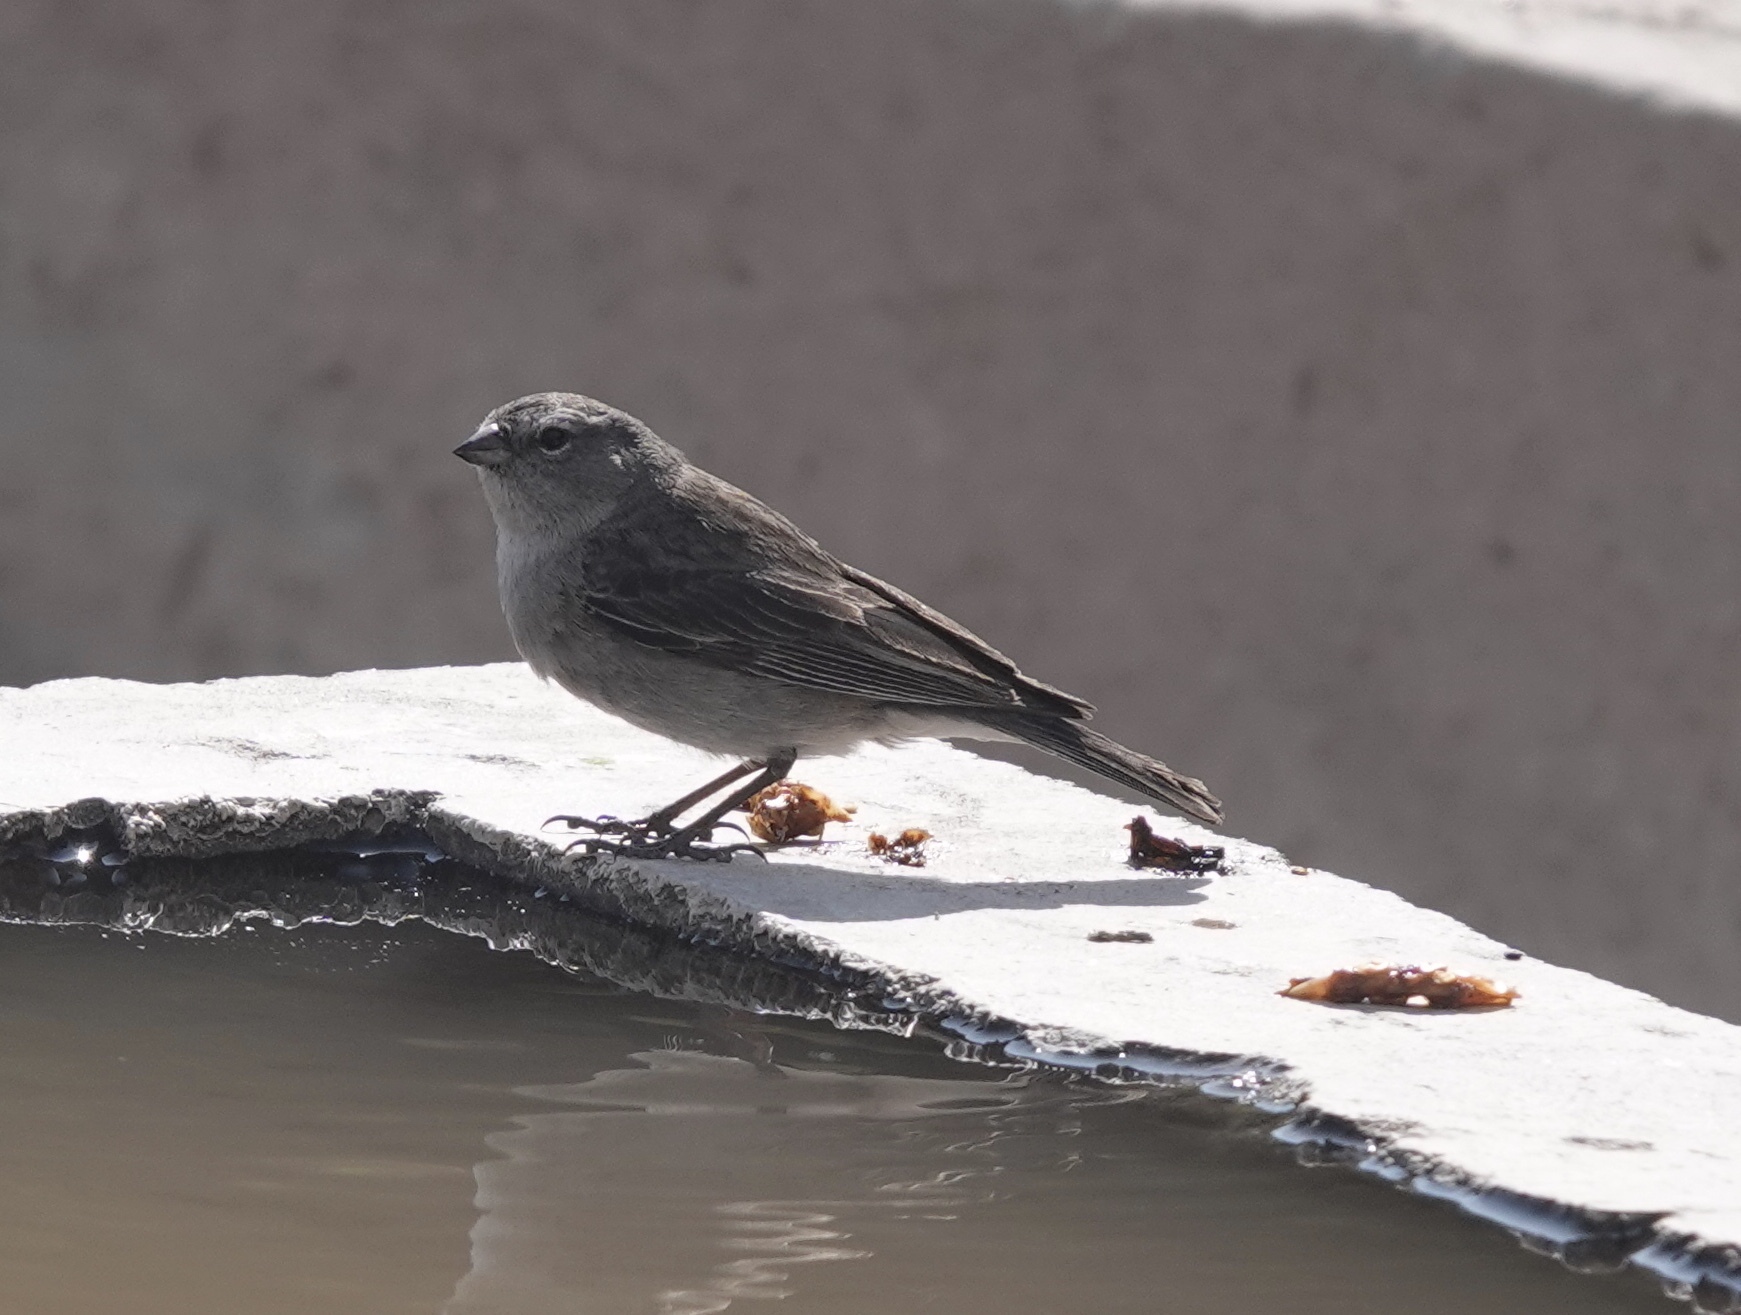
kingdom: Animalia
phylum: Chordata
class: Aves
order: Passeriformes
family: Thraupidae
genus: Geospizopsis
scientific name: Geospizopsis plebejus
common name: Ash-breasted sierra-finch
